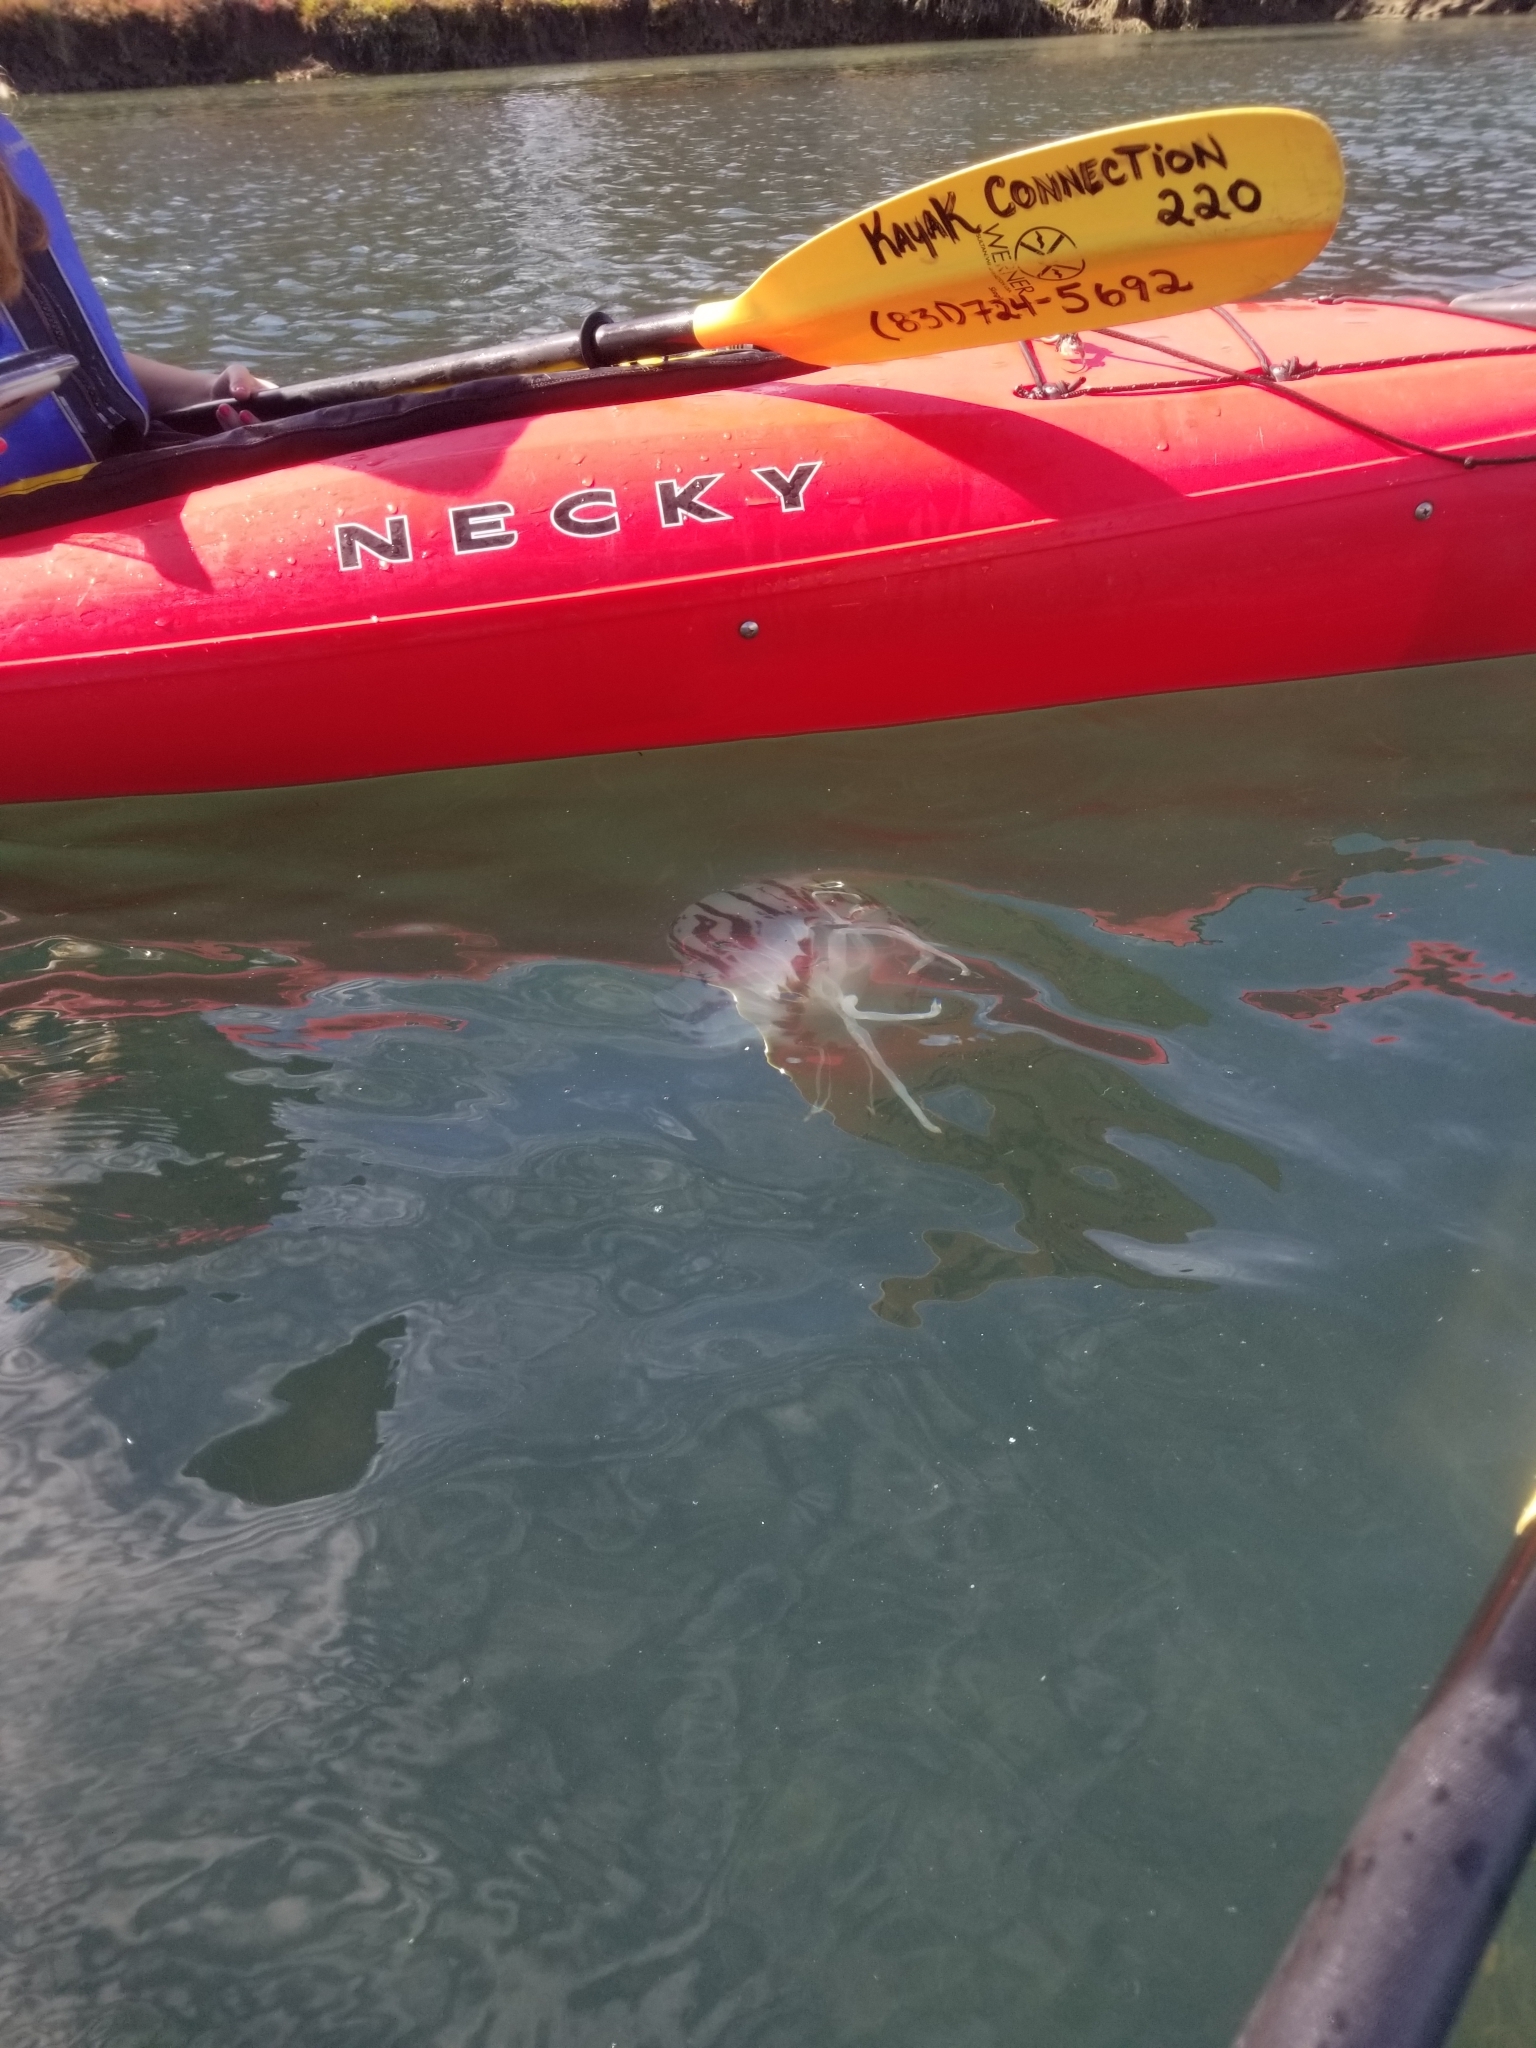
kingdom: Animalia
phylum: Cnidaria
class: Scyphozoa
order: Semaeostomeae
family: Pelagiidae
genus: Chrysaora
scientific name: Chrysaora colorata
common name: Purple-striped jellyfish
